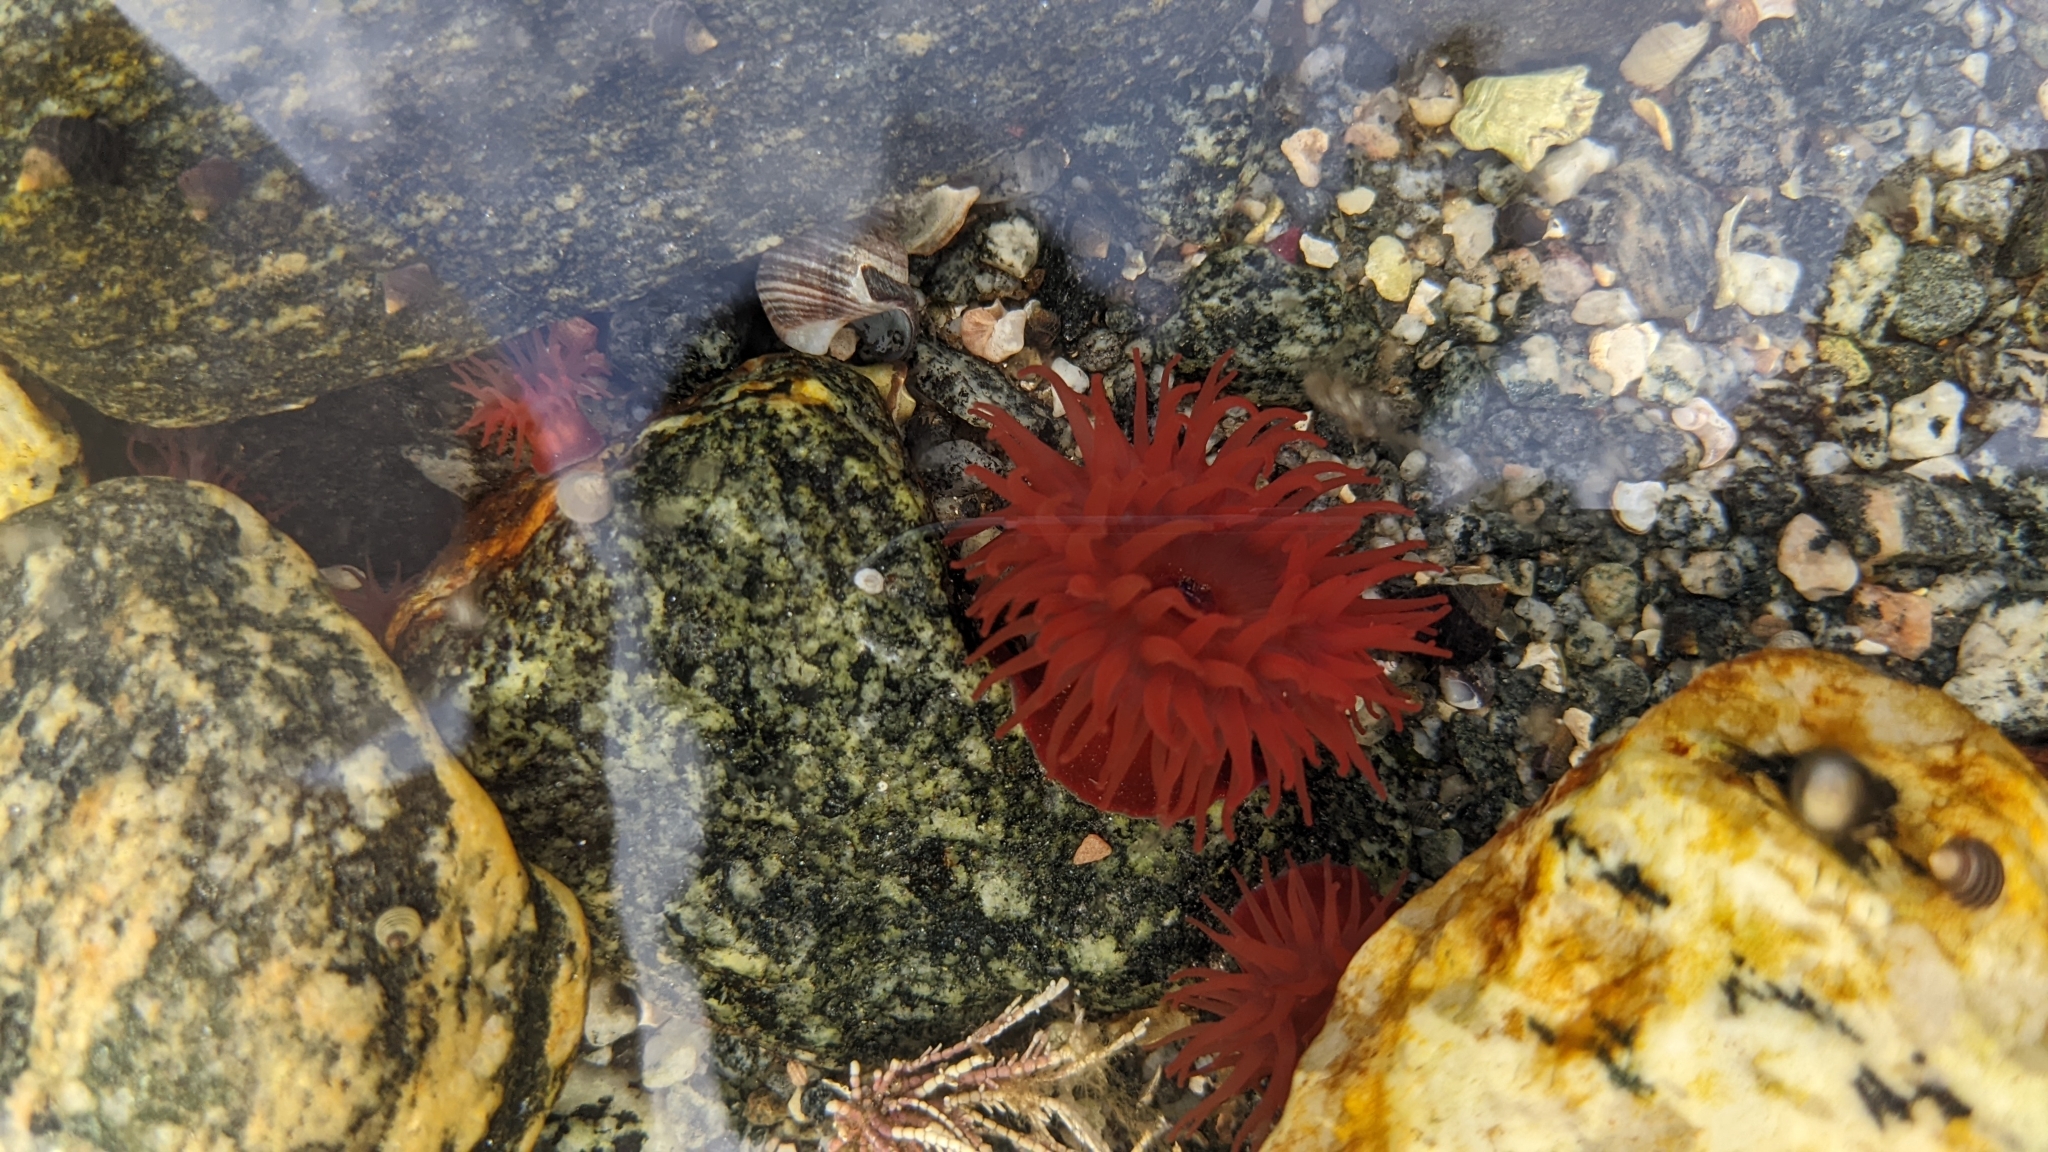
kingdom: Animalia
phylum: Cnidaria
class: Anthozoa
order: Actiniaria
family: Actiniidae
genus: Actinia
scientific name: Actinia equina
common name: Beadlet anemone
